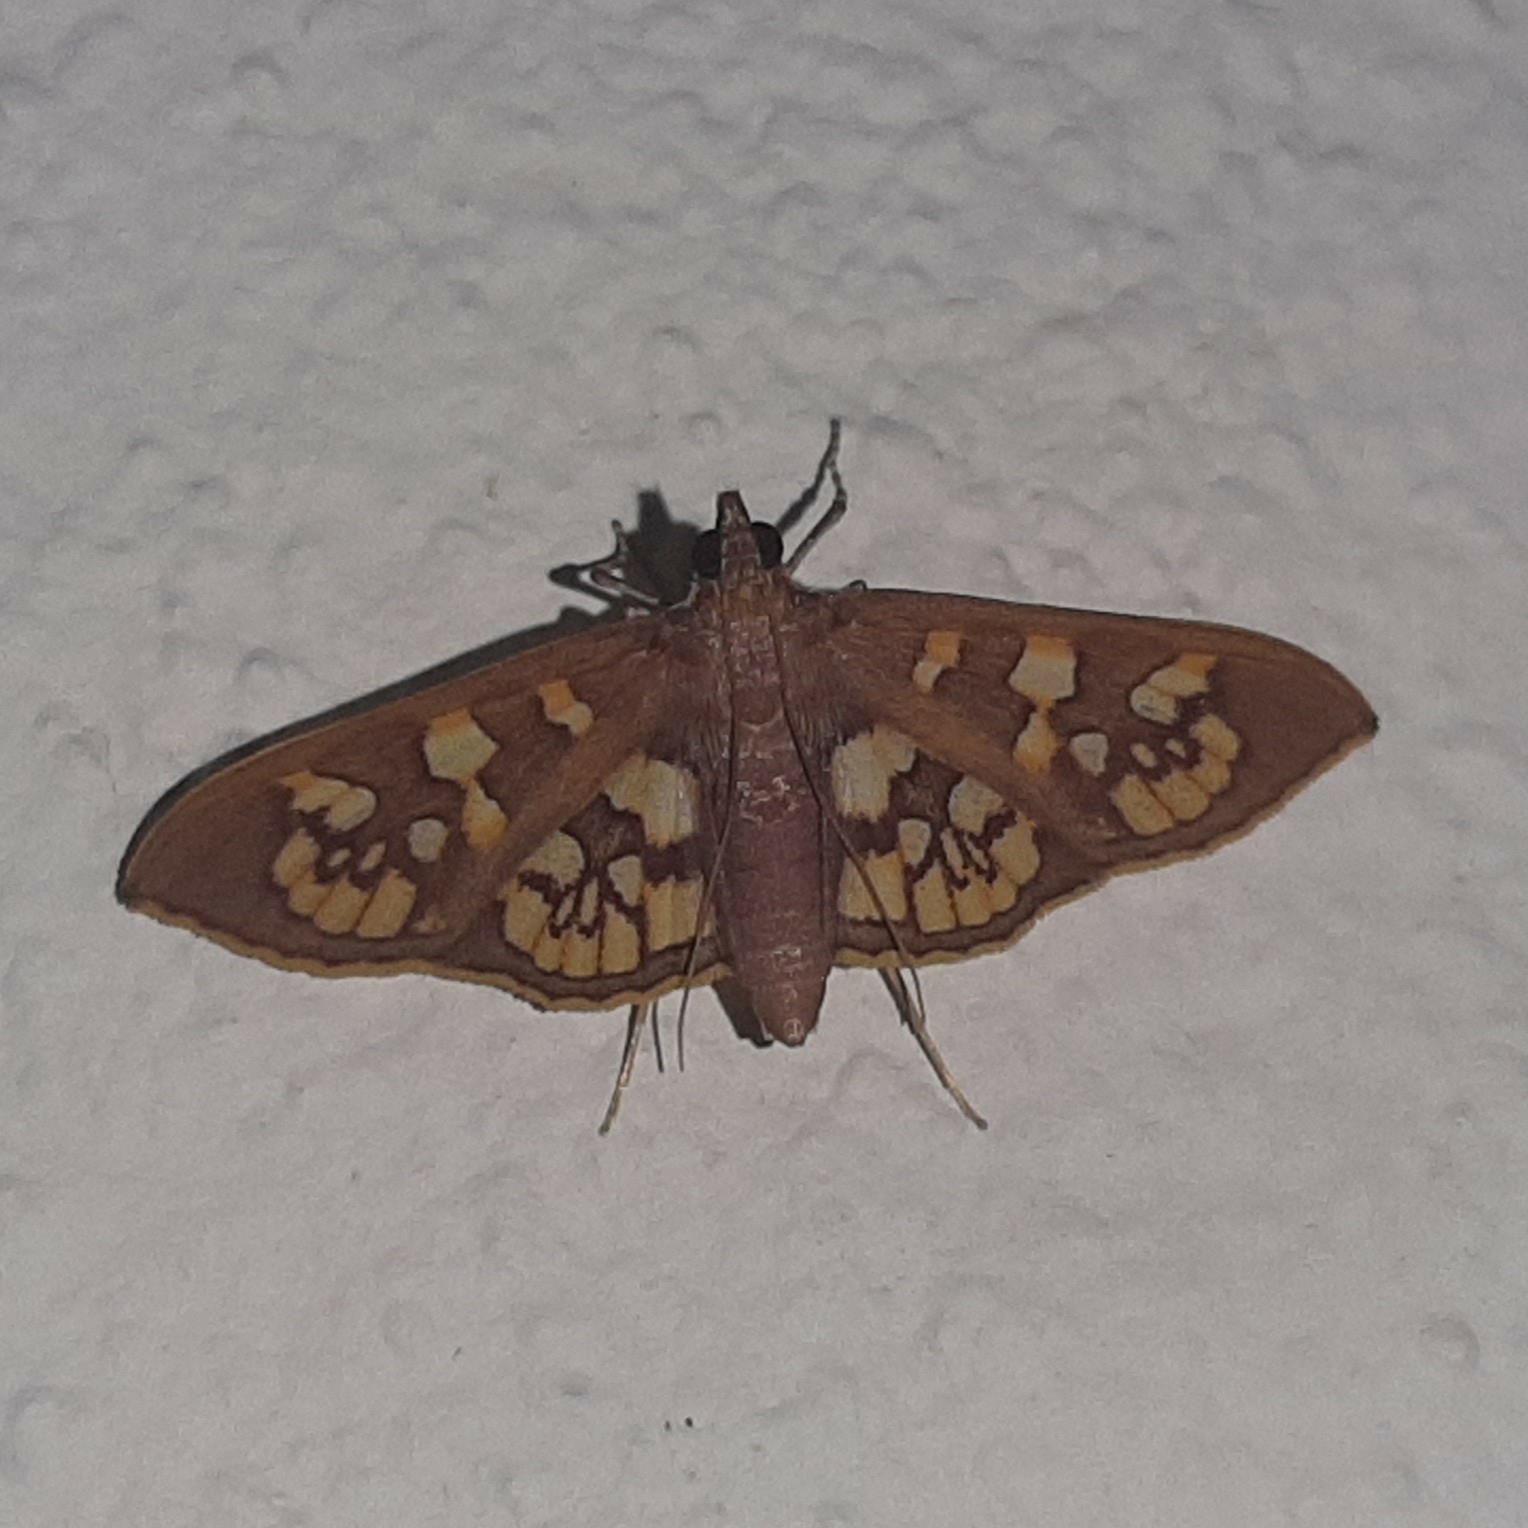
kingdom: Animalia
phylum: Arthropoda
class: Insecta
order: Lepidoptera
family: Crambidae
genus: Trithyris
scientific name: Trithyris Prenesta fenestrinalis
